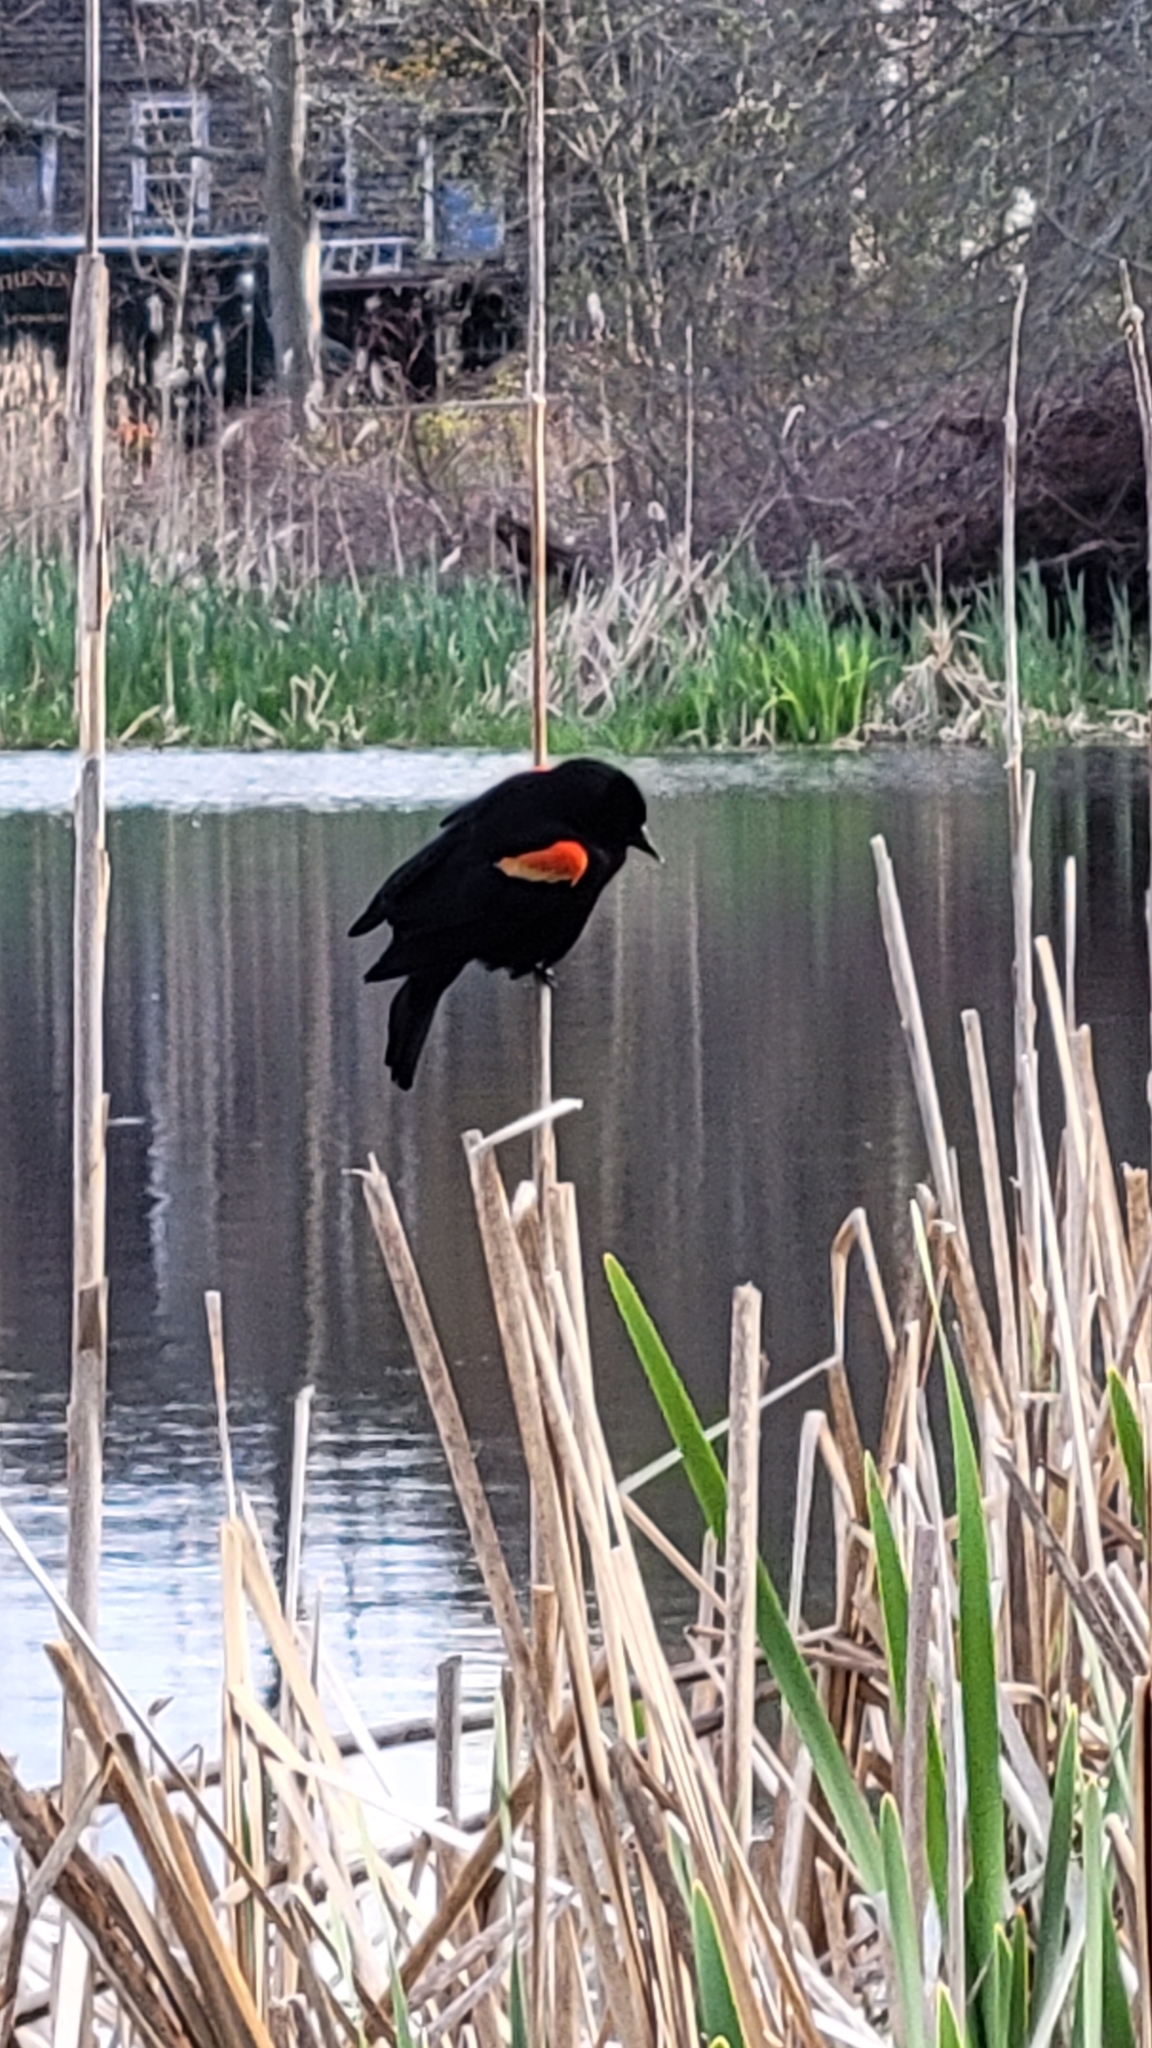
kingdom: Animalia
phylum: Chordata
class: Aves
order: Passeriformes
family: Icteridae
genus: Agelaius
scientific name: Agelaius phoeniceus
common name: Red-winged blackbird
